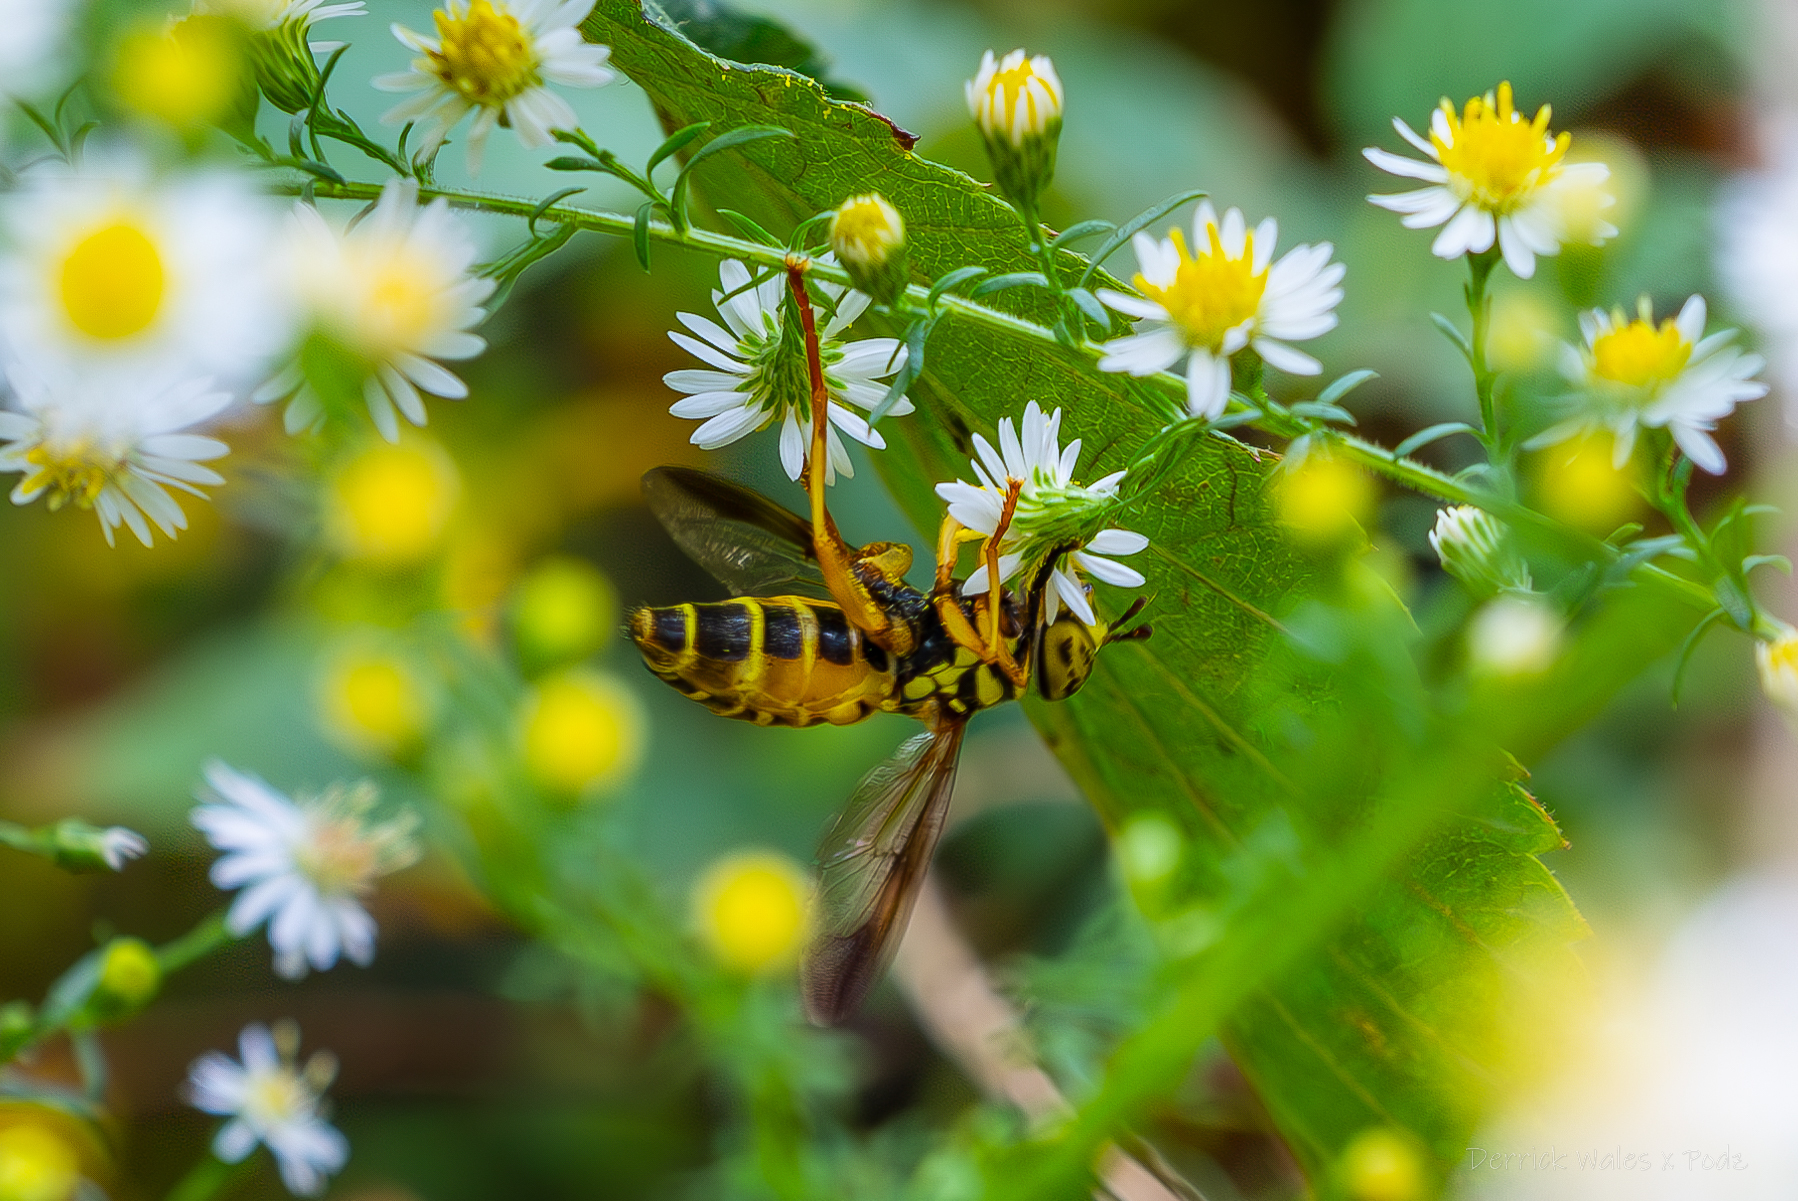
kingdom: Animalia
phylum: Arthropoda
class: Insecta
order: Diptera
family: Syrphidae
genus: Spilomyia
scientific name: Spilomyia longicornis
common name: Eastern hornet fly
